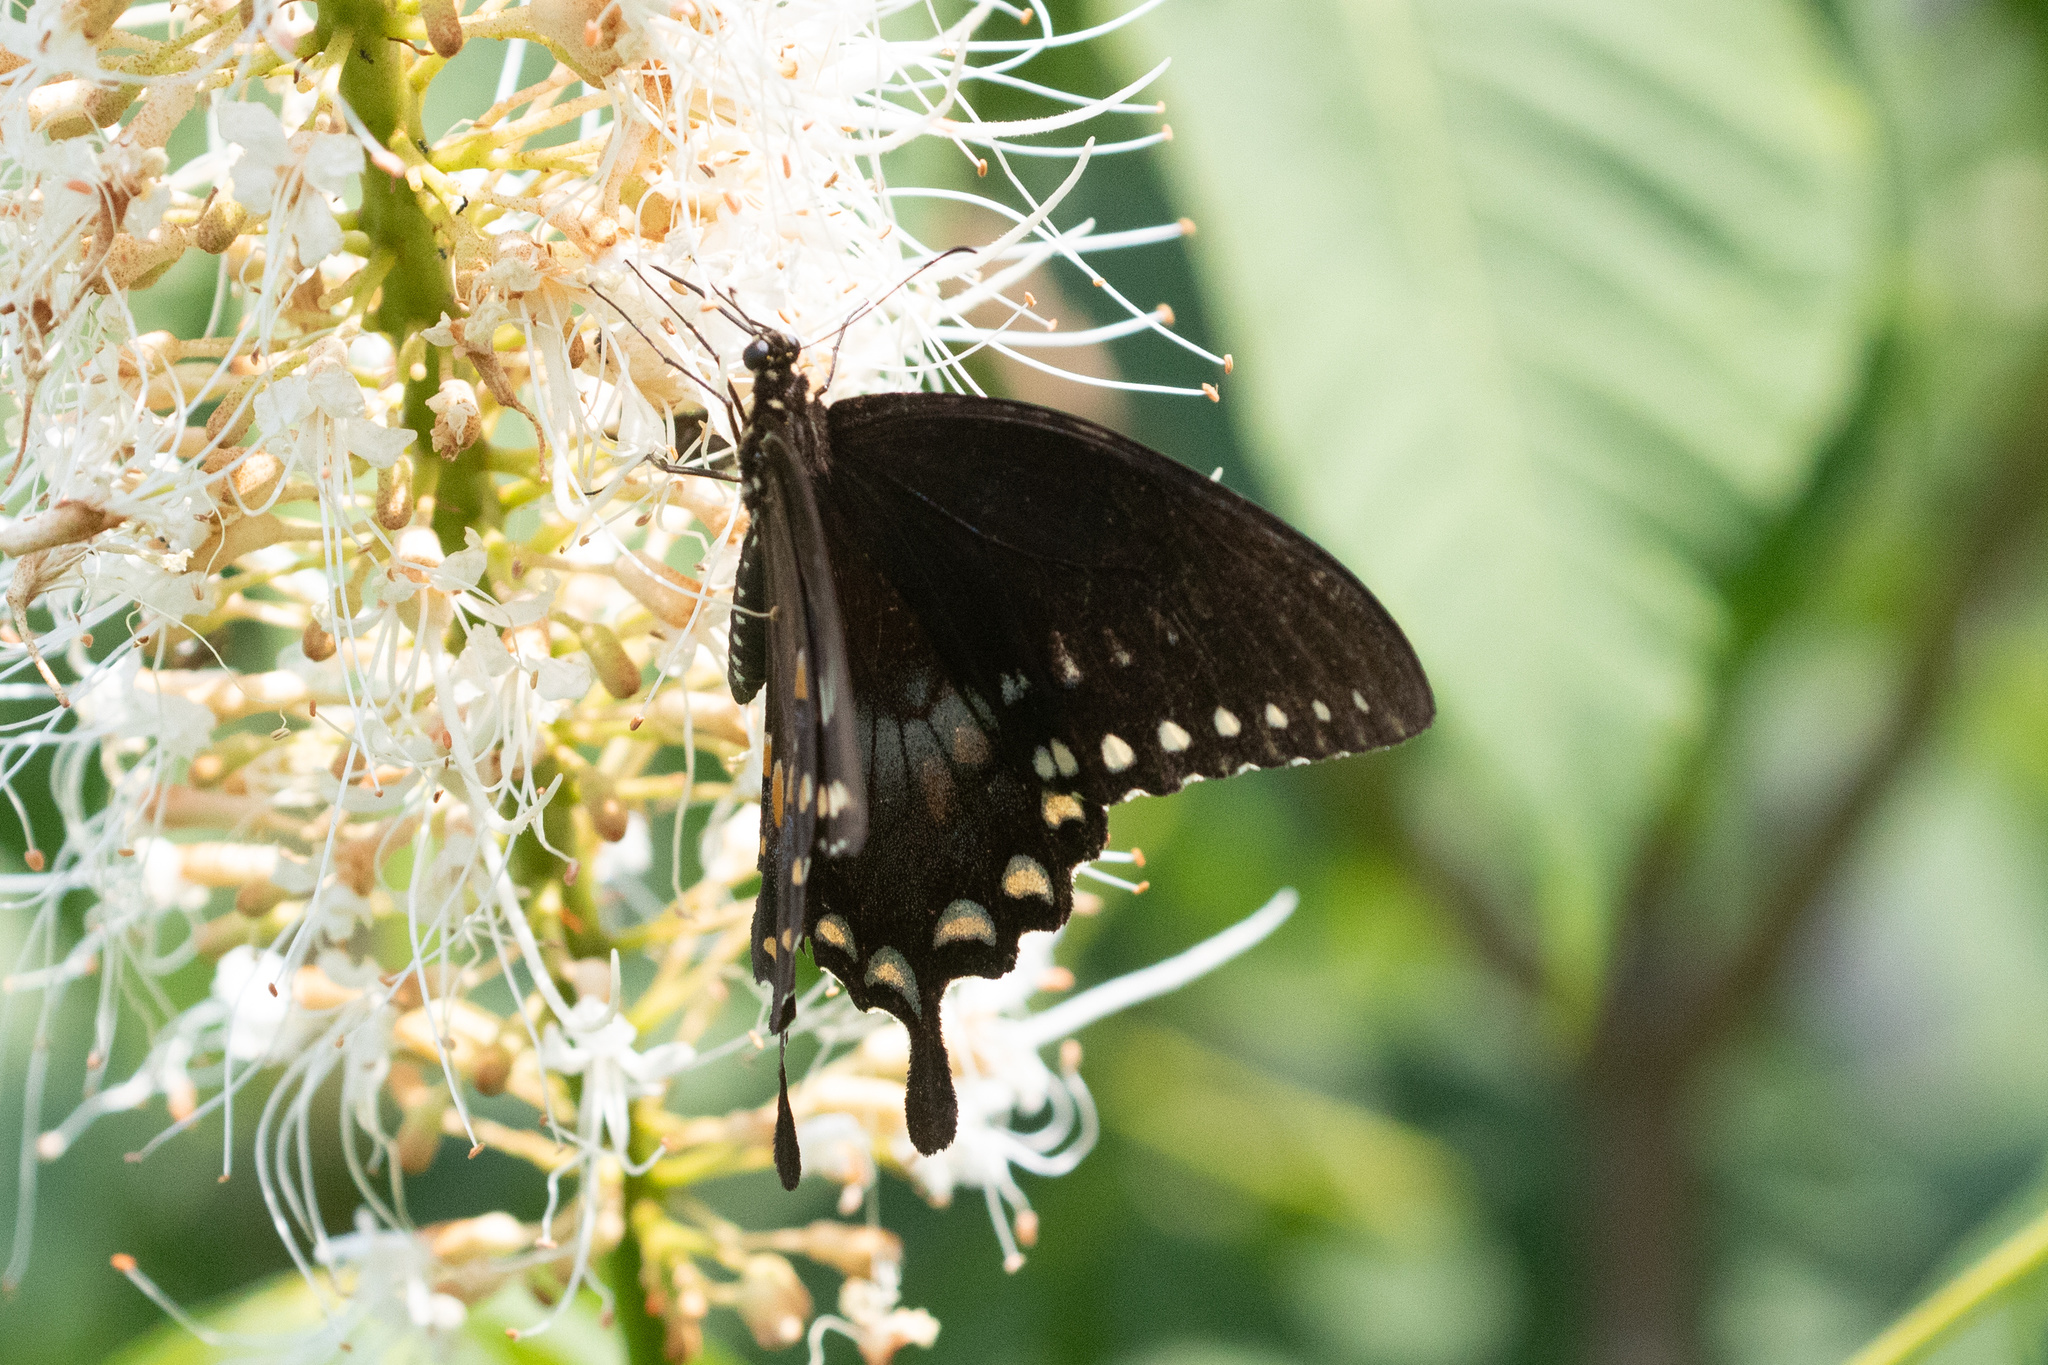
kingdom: Animalia
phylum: Arthropoda
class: Insecta
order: Lepidoptera
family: Papilionidae
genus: Papilio
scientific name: Papilio troilus
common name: Spicebush swallowtail
